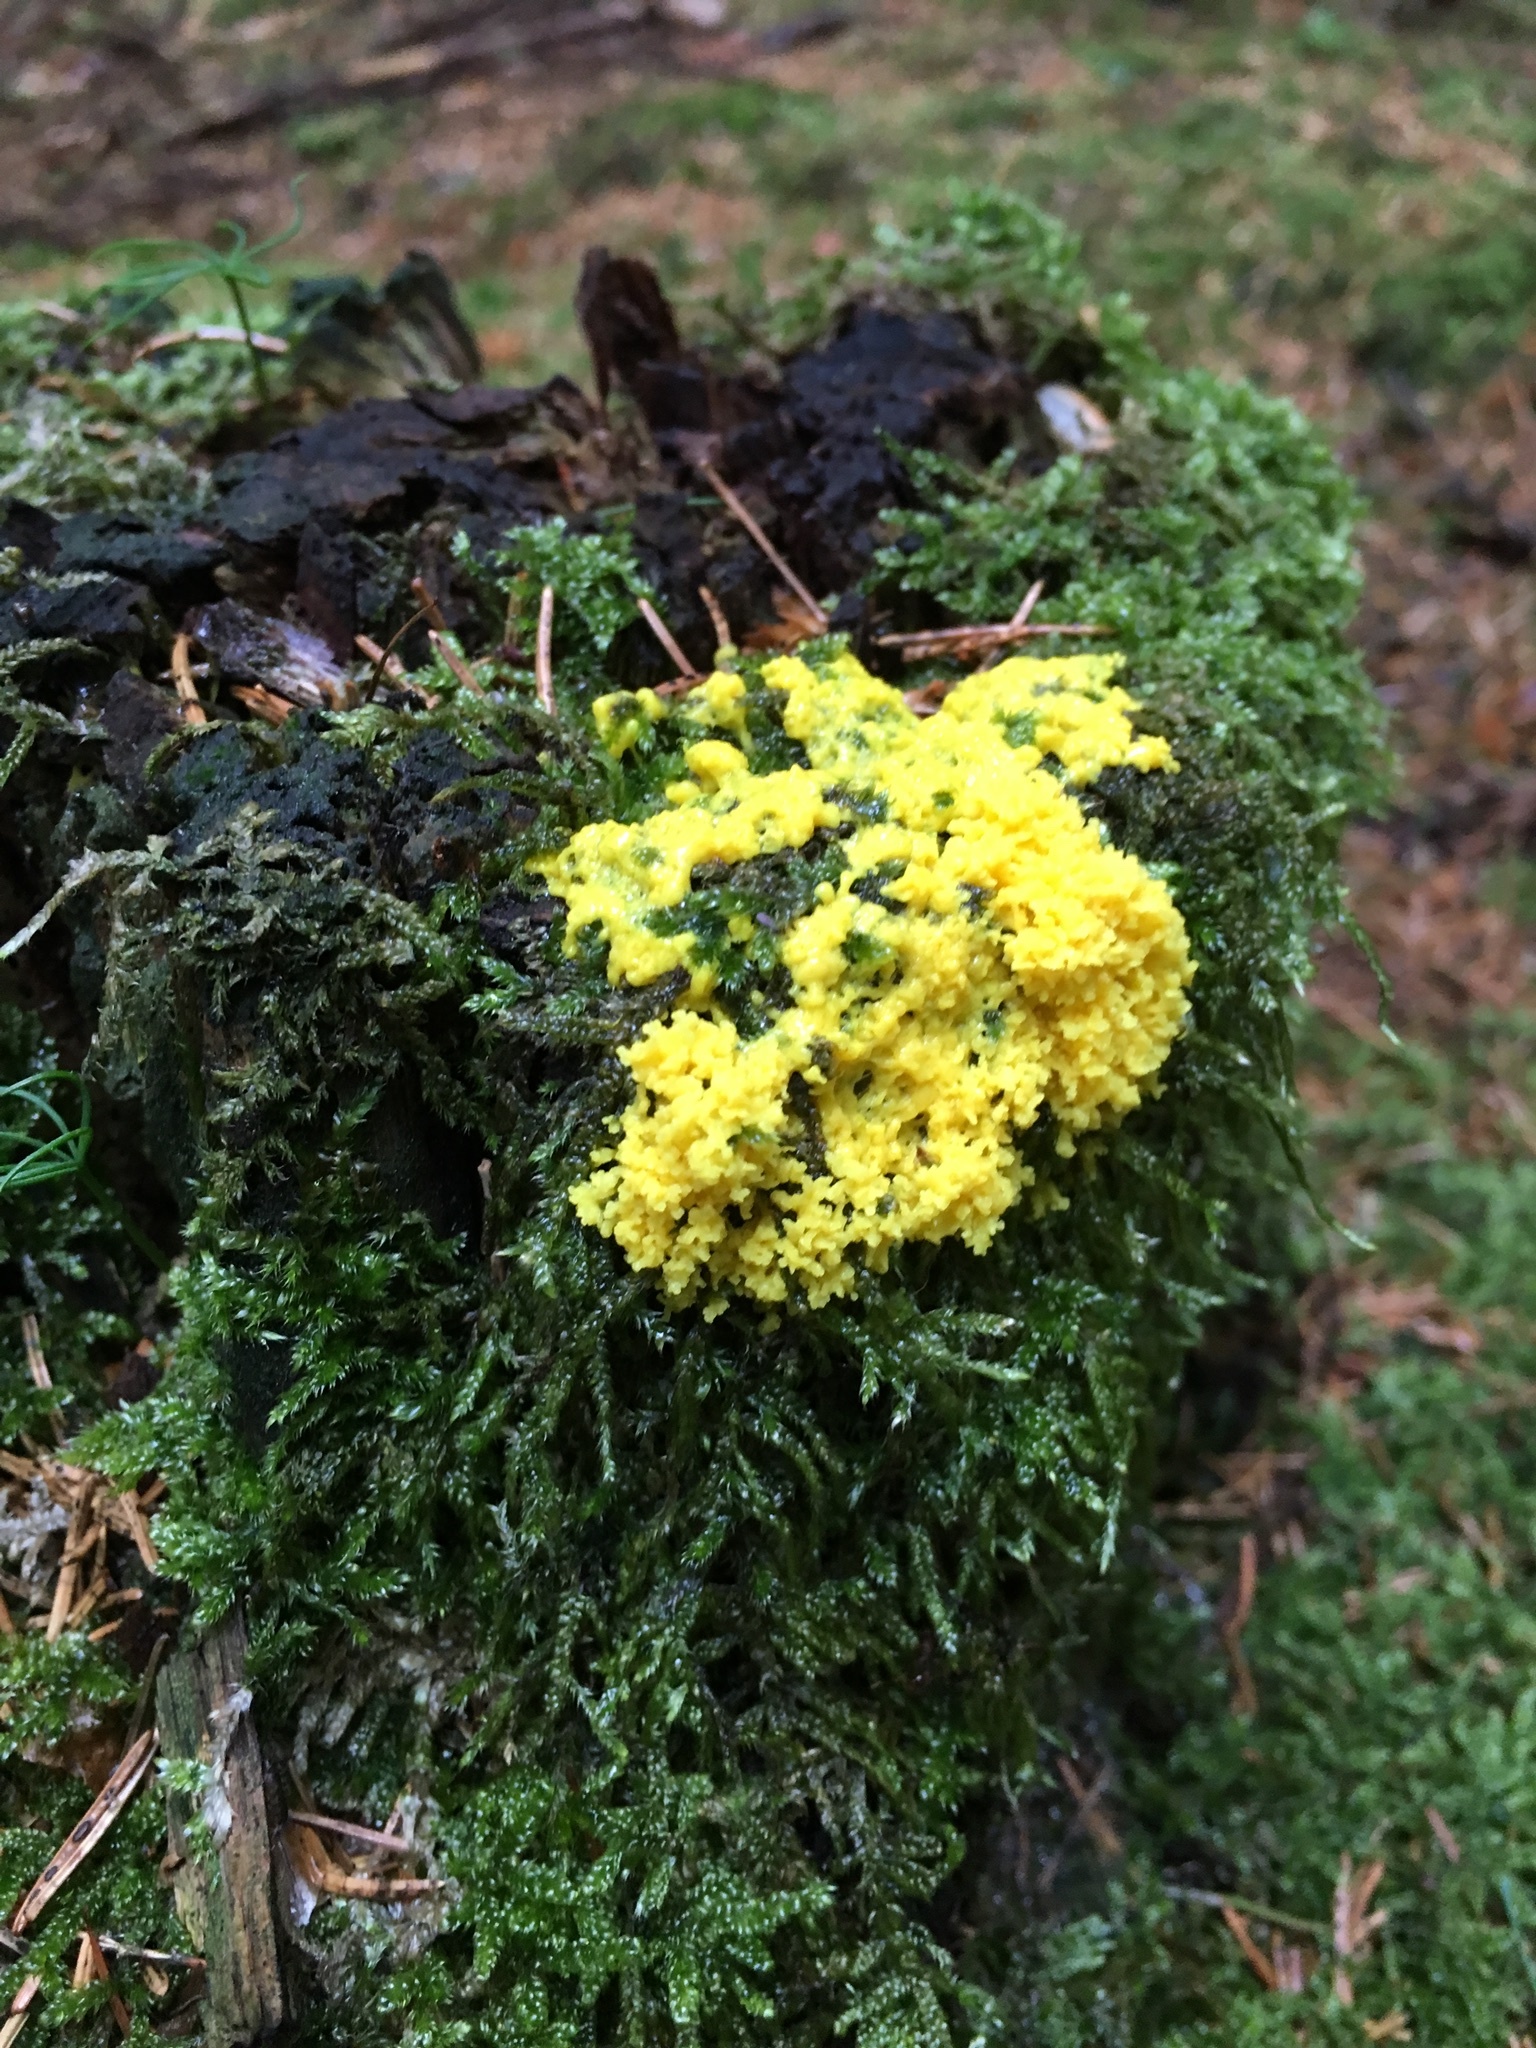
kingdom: Protozoa
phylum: Mycetozoa
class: Myxomycetes
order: Physarales
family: Physaraceae
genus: Fuligo
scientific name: Fuligo septica
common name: Dog vomit slime mold
